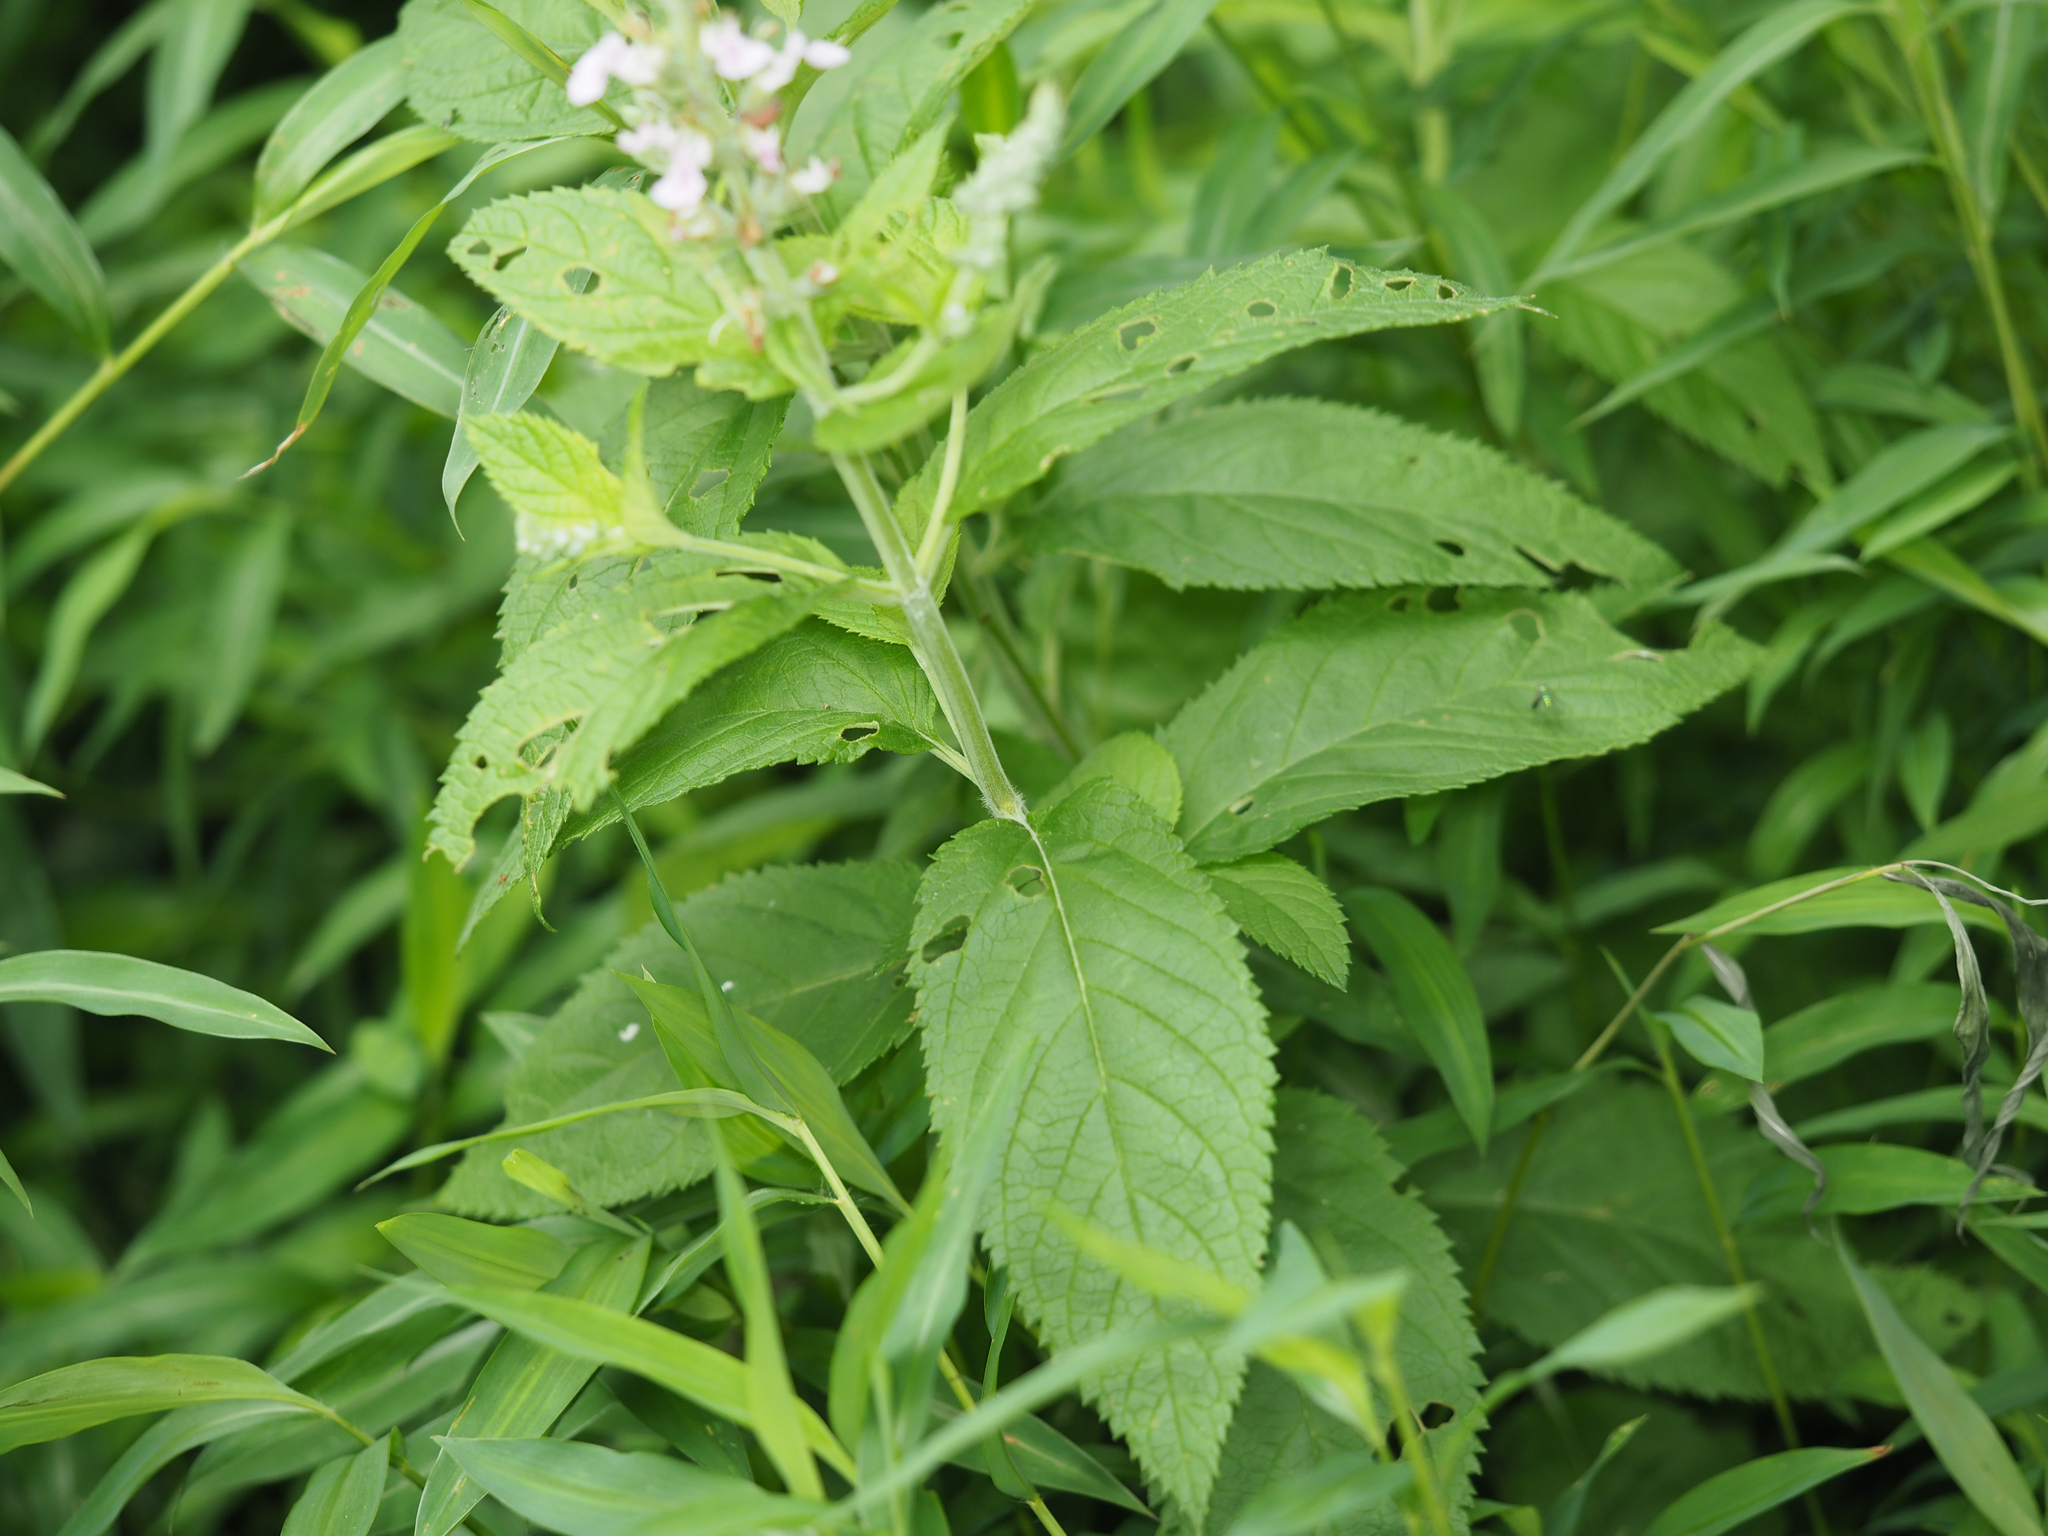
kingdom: Plantae
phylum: Tracheophyta
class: Magnoliopsida
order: Lamiales
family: Lamiaceae
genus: Teucrium
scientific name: Teucrium canadense
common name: American germander
